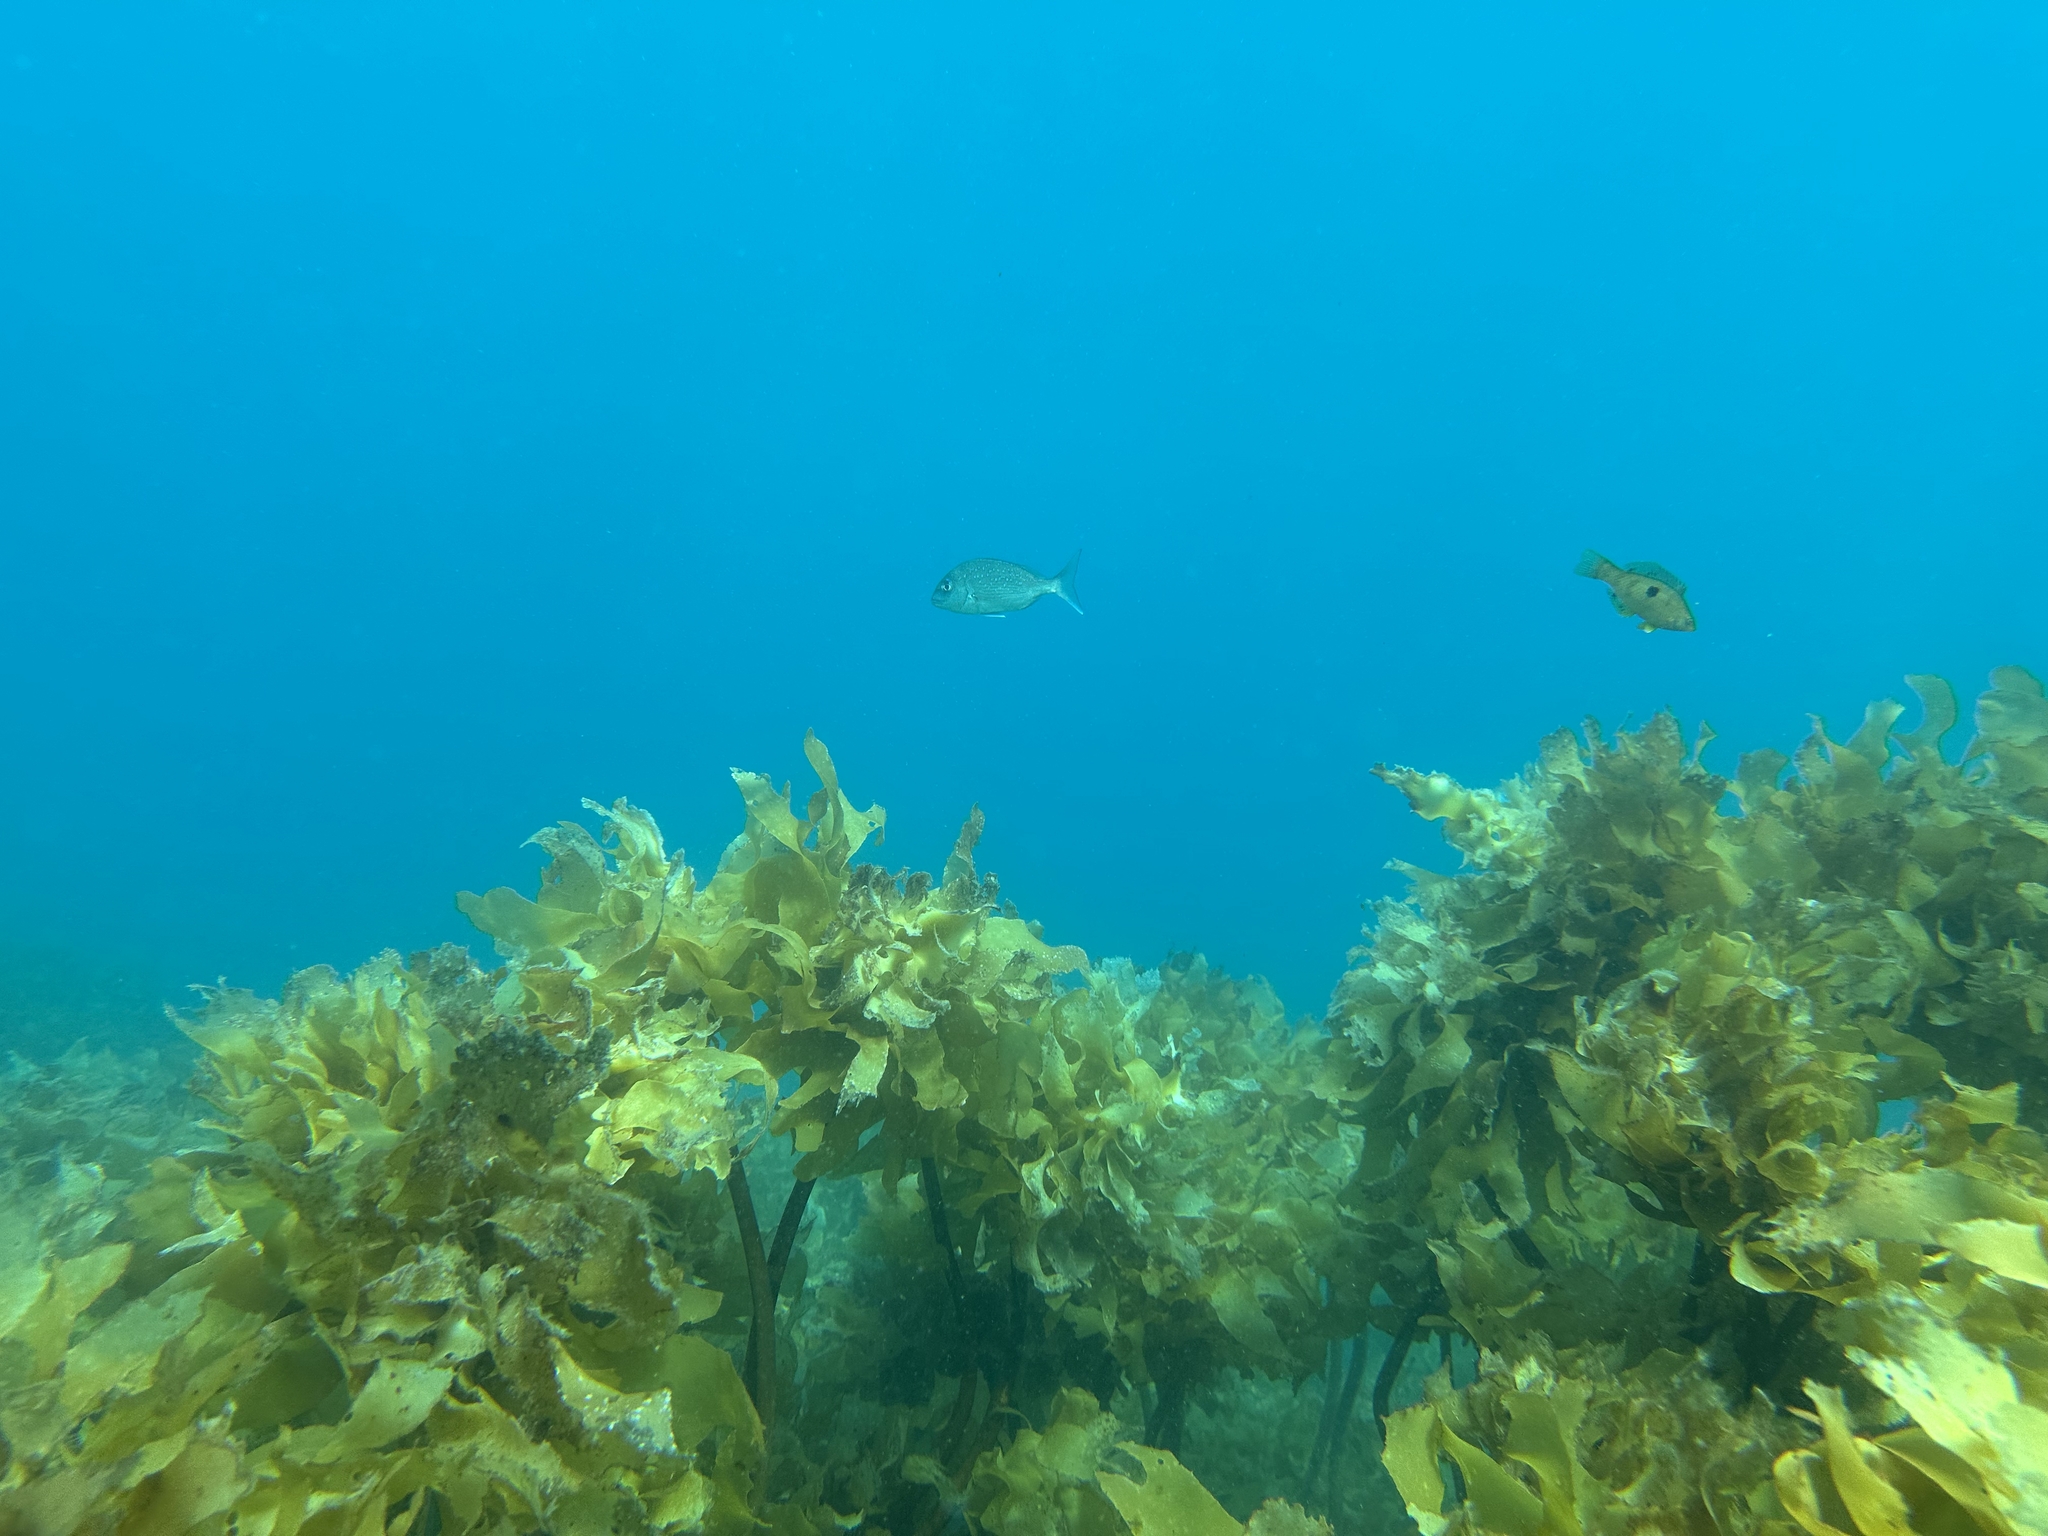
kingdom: Animalia
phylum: Chordata
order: Perciformes
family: Sparidae
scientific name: Sparidae
